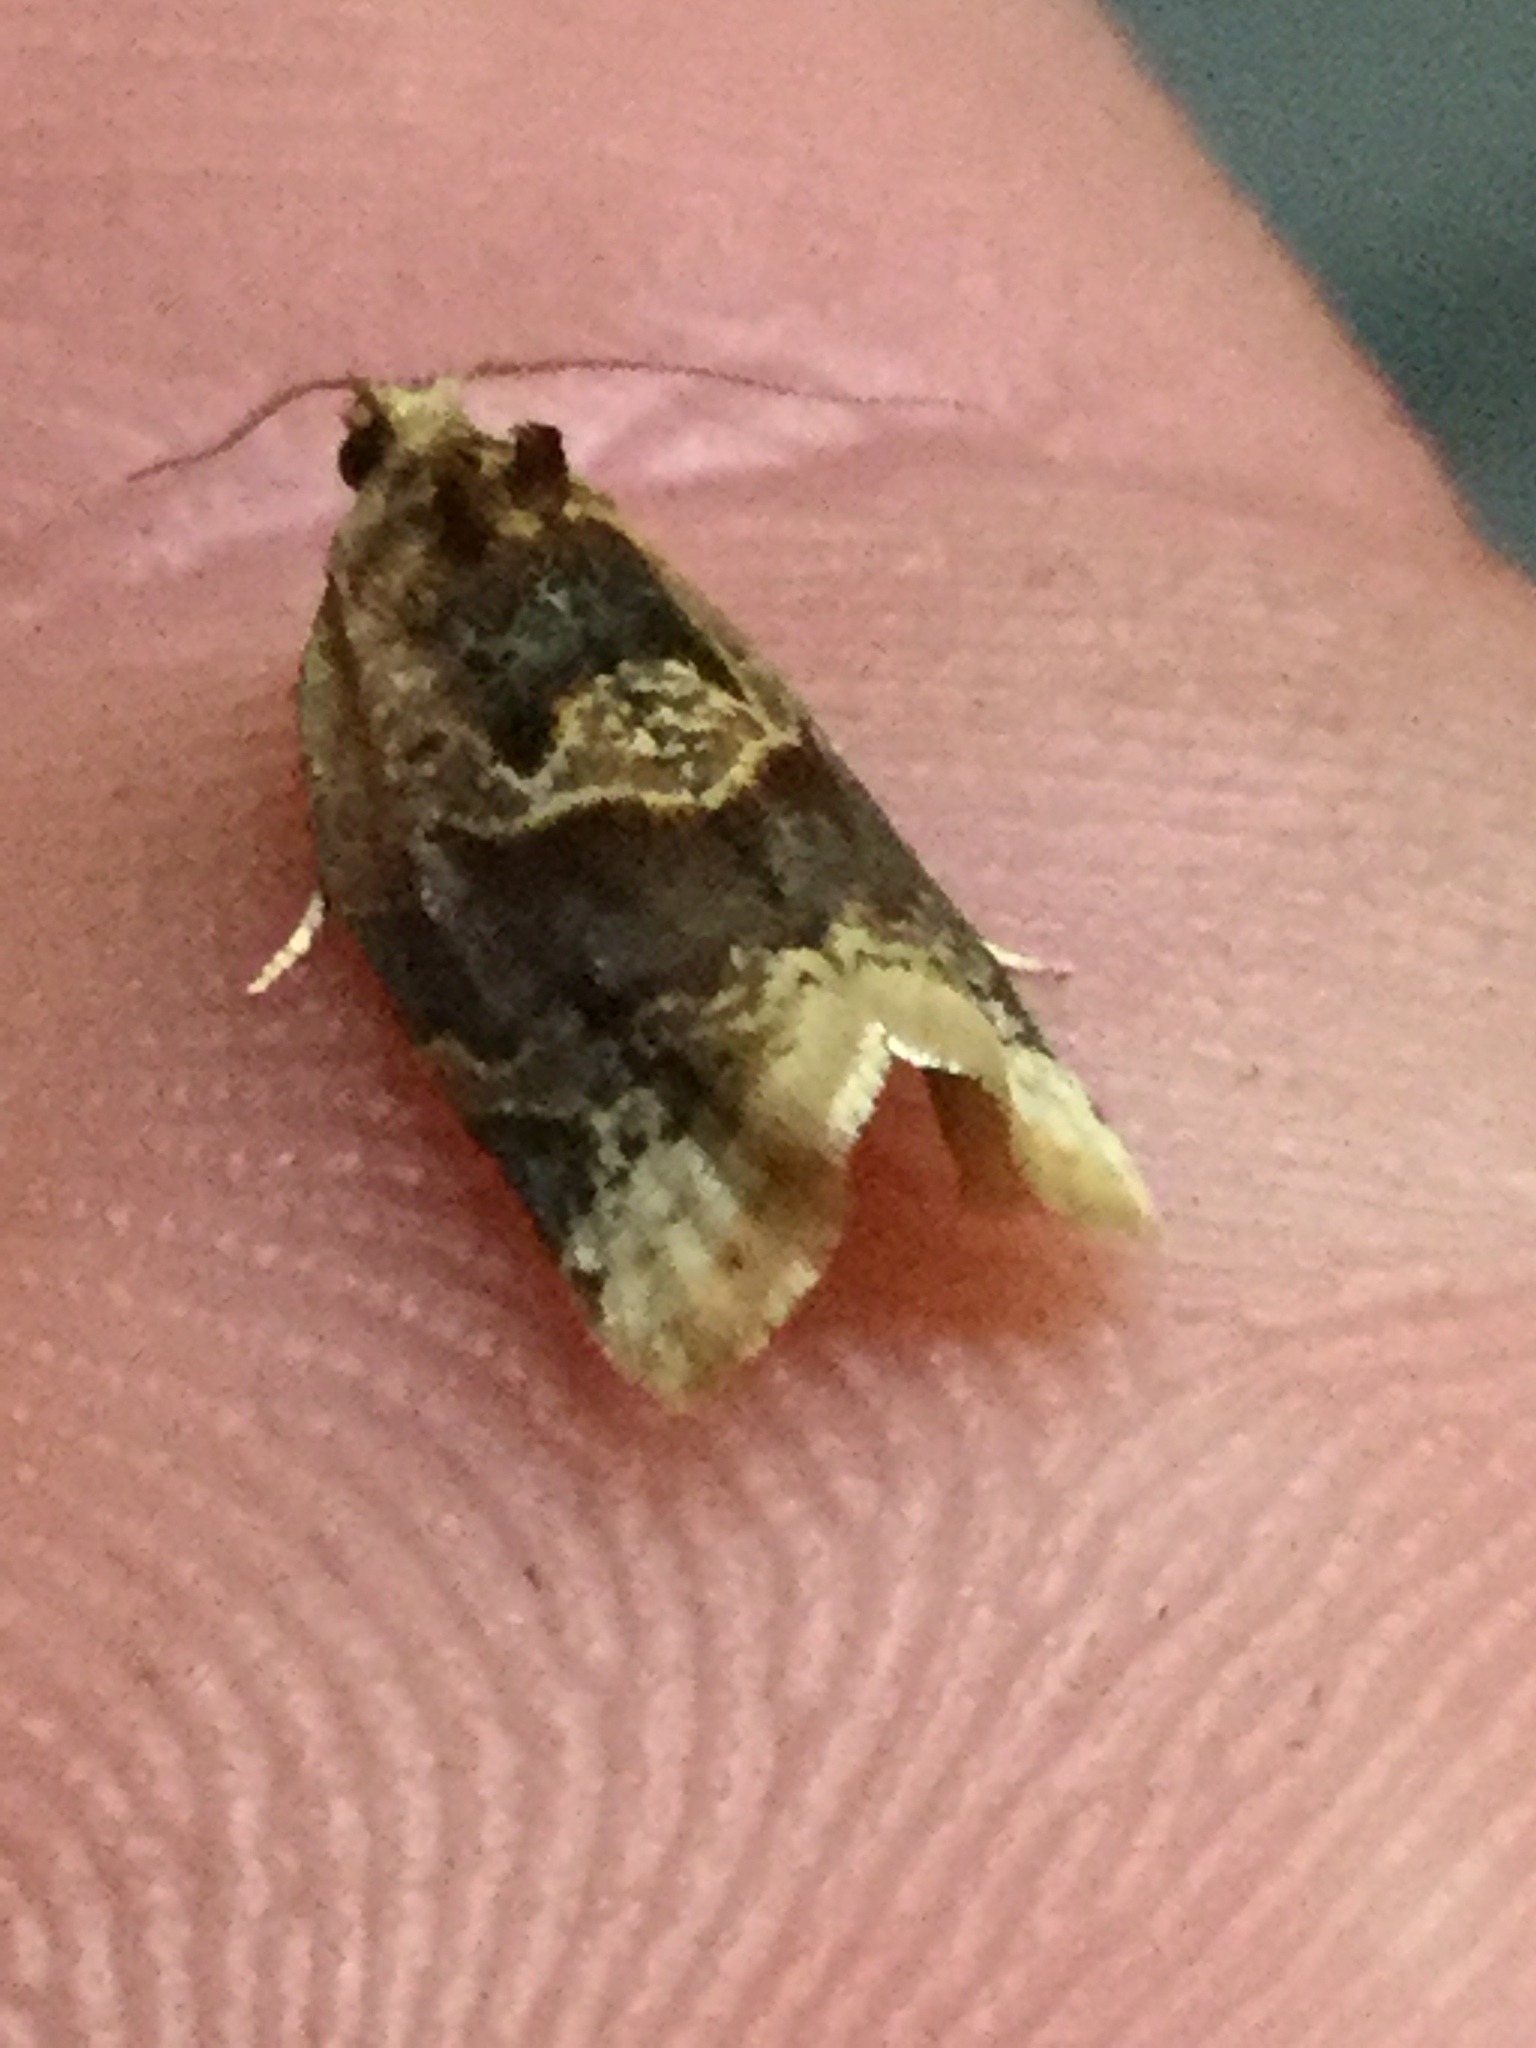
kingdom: Animalia
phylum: Arthropoda
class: Insecta
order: Lepidoptera
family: Tortricidae
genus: Argyrotaenia
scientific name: Argyrotaenia velutinana
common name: Red-banded leafroller moth
